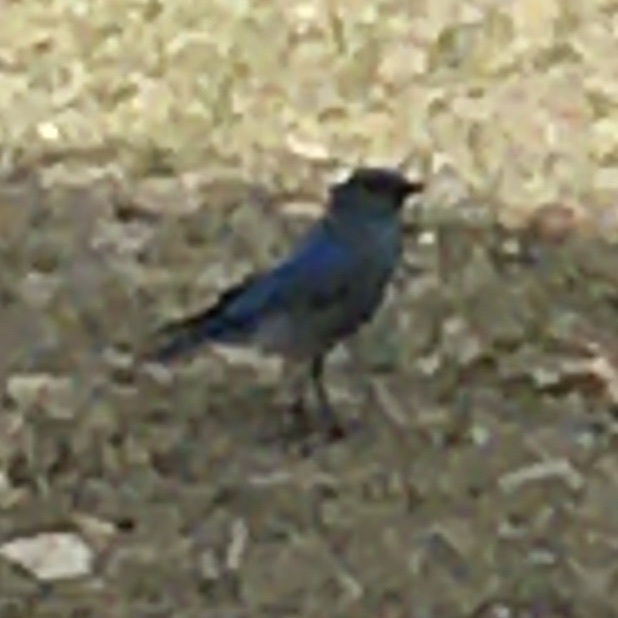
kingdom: Animalia
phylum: Chordata
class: Aves
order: Passeriformes
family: Turdidae
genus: Sialia
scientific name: Sialia mexicana
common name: Western bluebird
